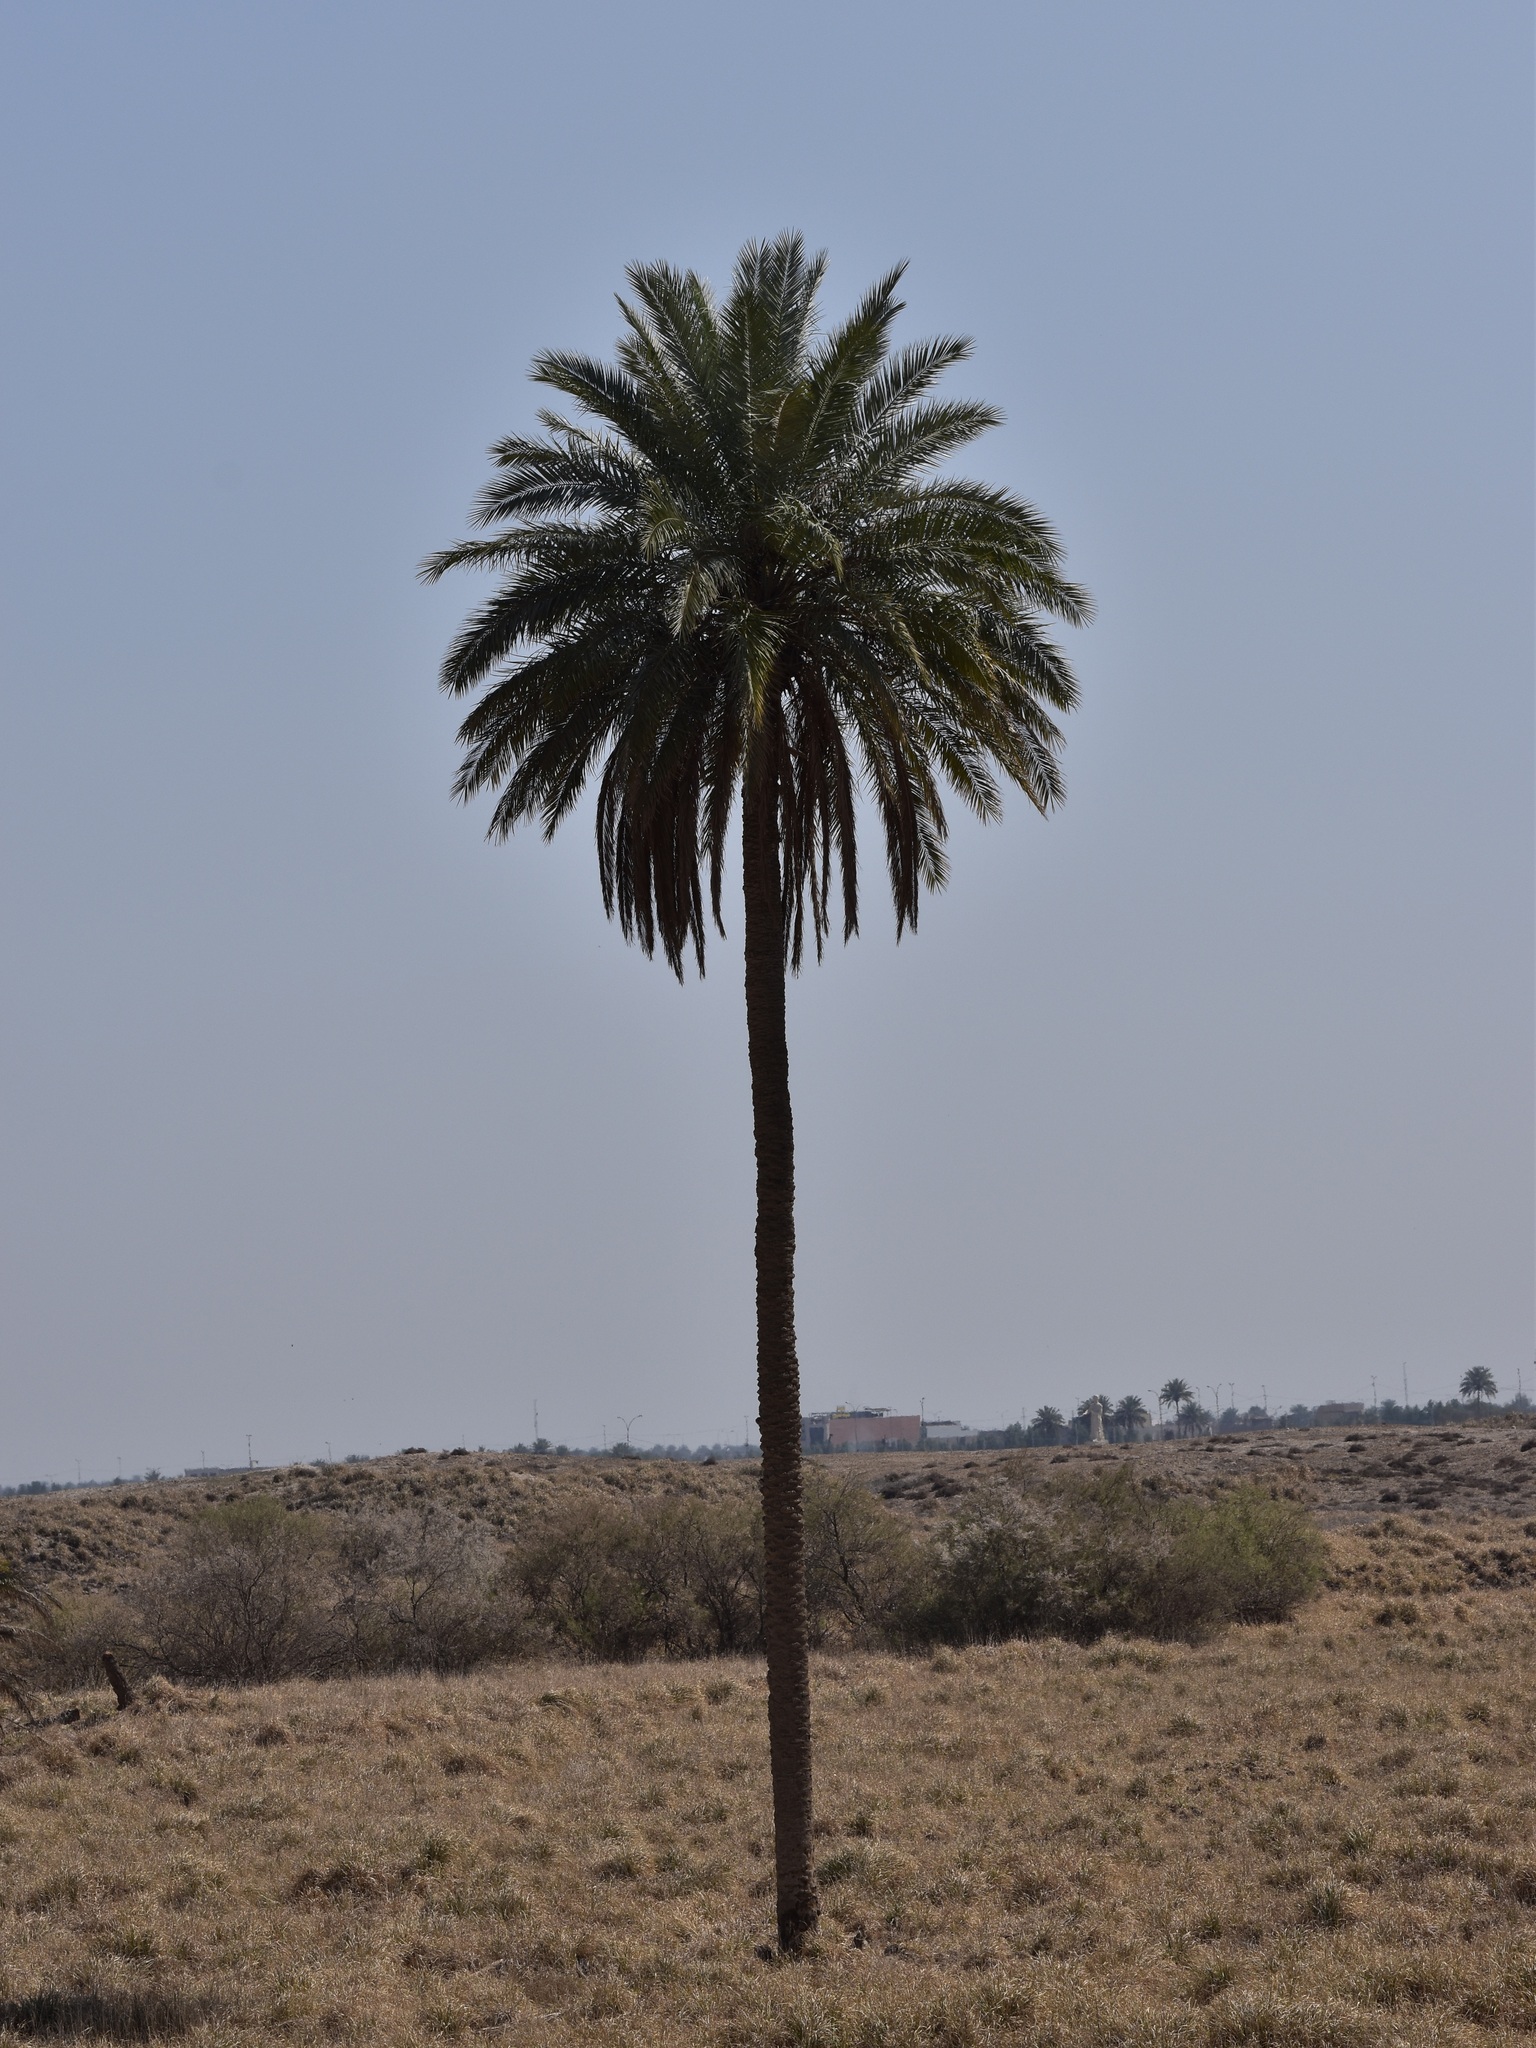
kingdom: Plantae
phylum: Tracheophyta
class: Liliopsida
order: Arecales
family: Arecaceae
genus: Phoenix
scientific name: Phoenix dactylifera
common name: Date palm
